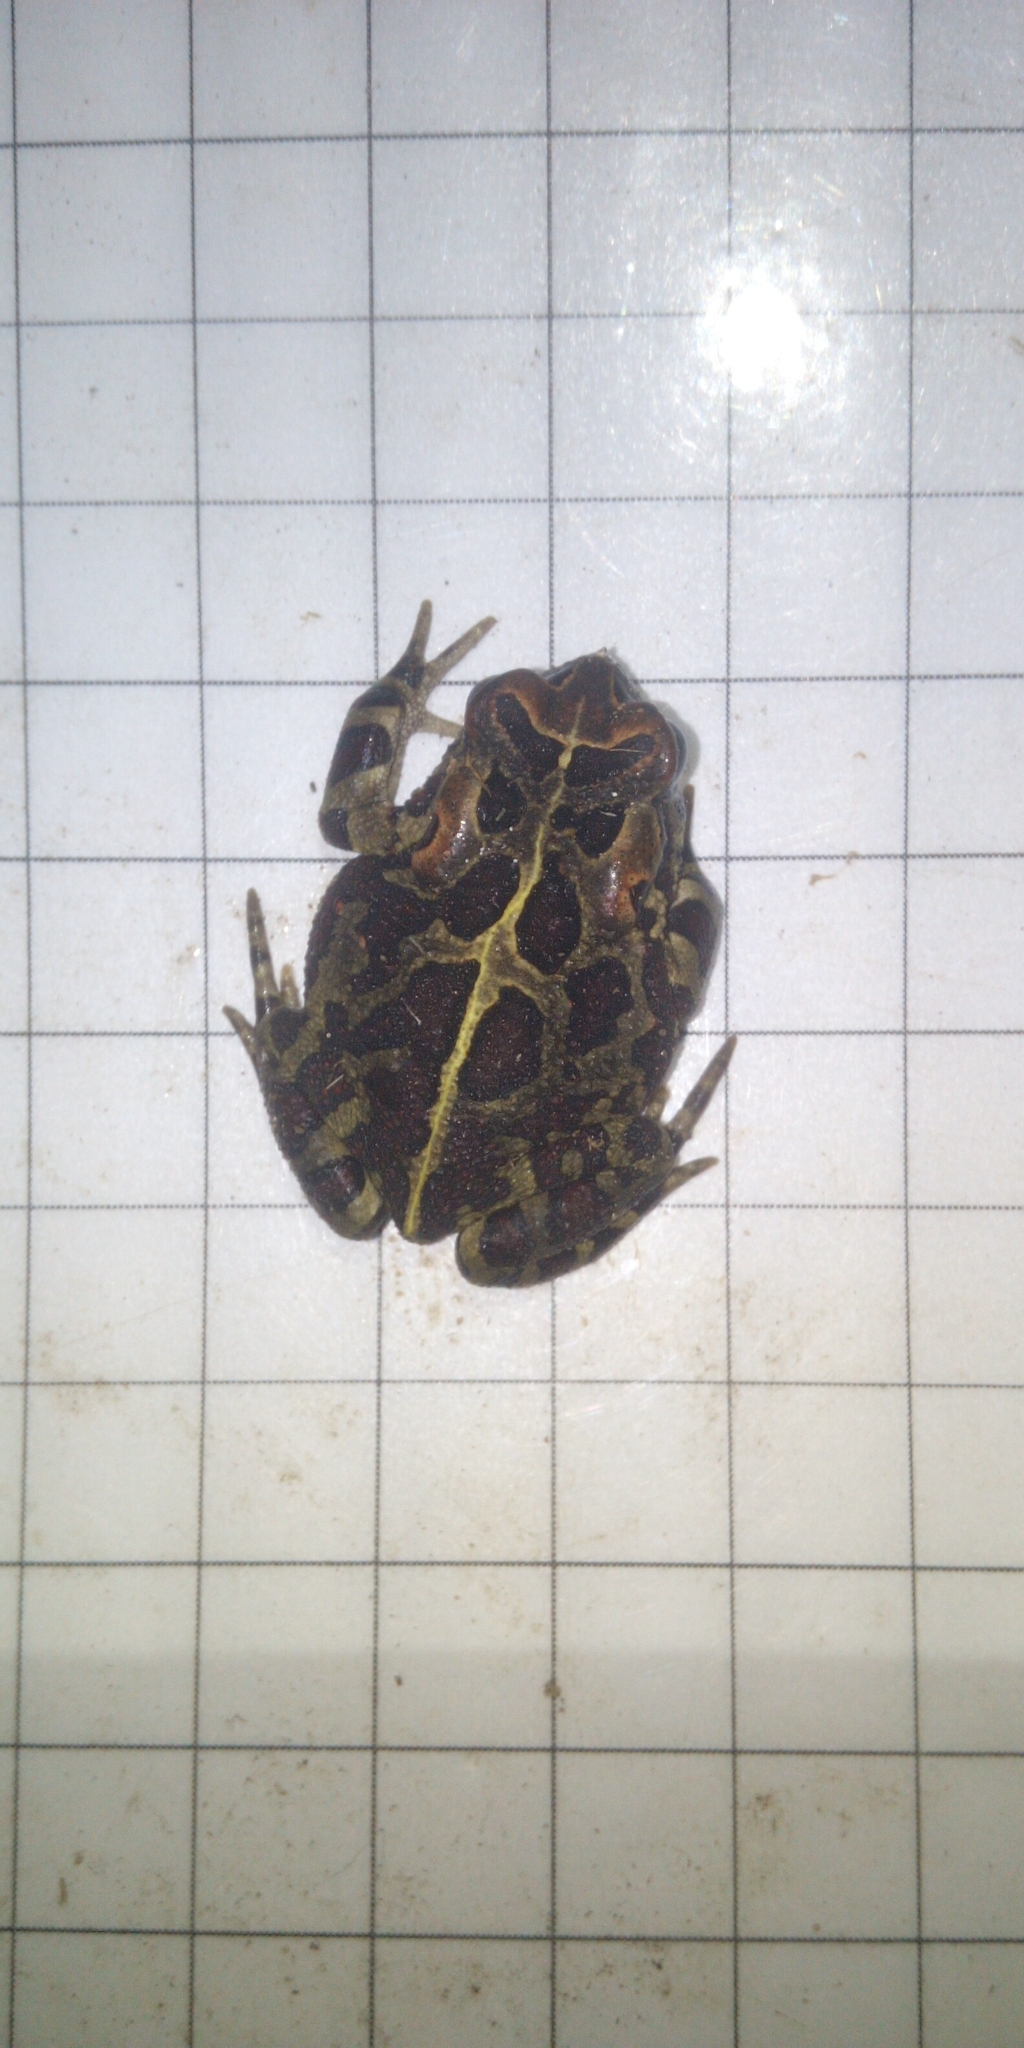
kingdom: Animalia
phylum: Chordata
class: Amphibia
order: Anura
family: Bufonidae
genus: Sclerophrys
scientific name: Sclerophrys pantherina
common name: Panther toad
